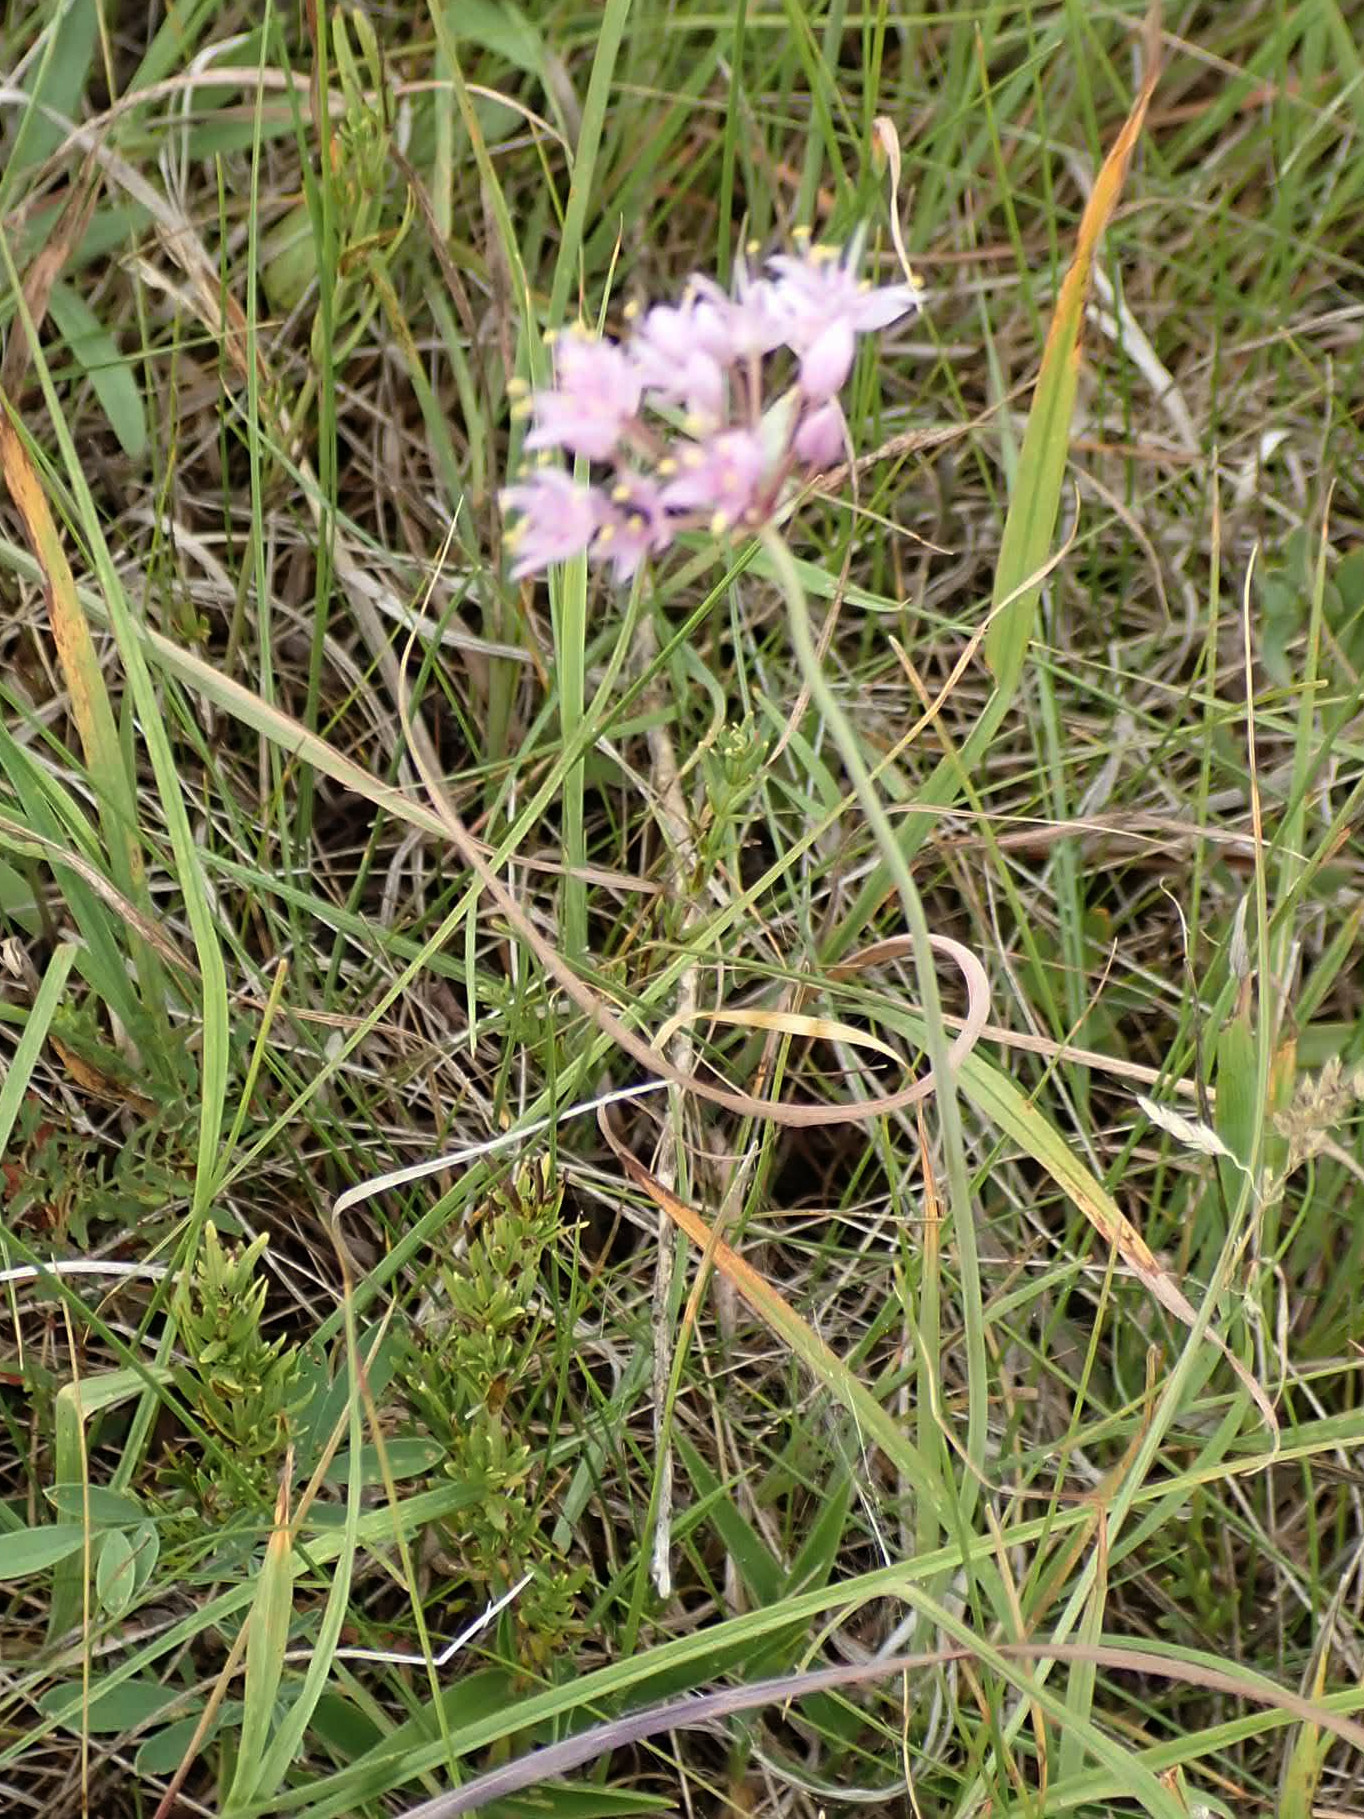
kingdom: Plantae
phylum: Tracheophyta
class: Liliopsida
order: Asparagales
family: Amaryllidaceae
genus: Allium
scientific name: Allium stellatum
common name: Autumn onion
